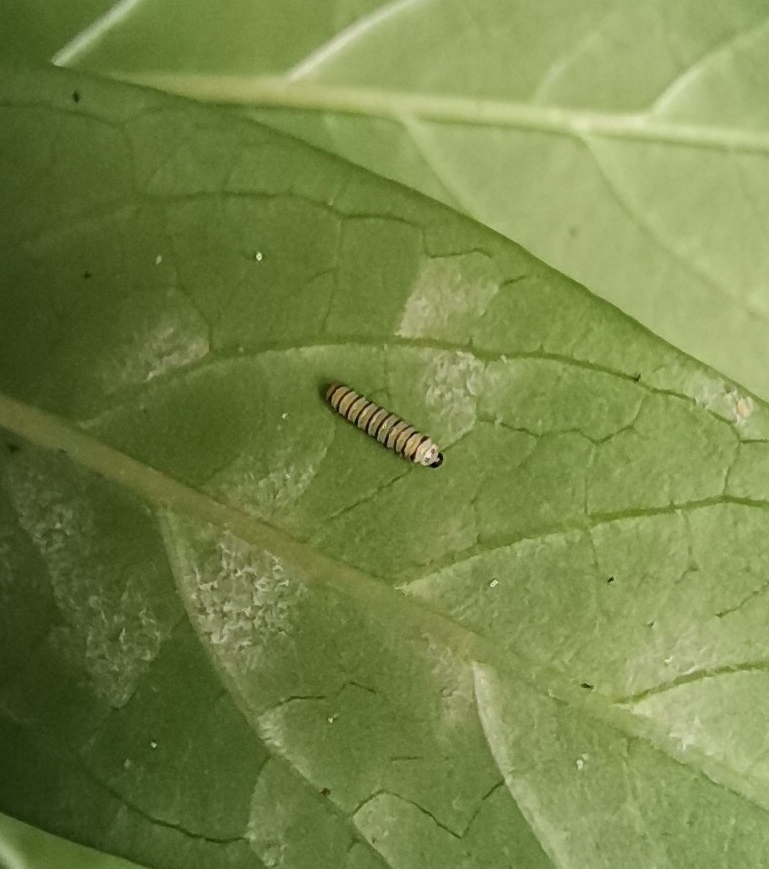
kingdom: Animalia
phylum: Arthropoda
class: Insecta
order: Lepidoptera
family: Nymphalidae
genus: Danaus
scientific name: Danaus plexippus
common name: Monarch
